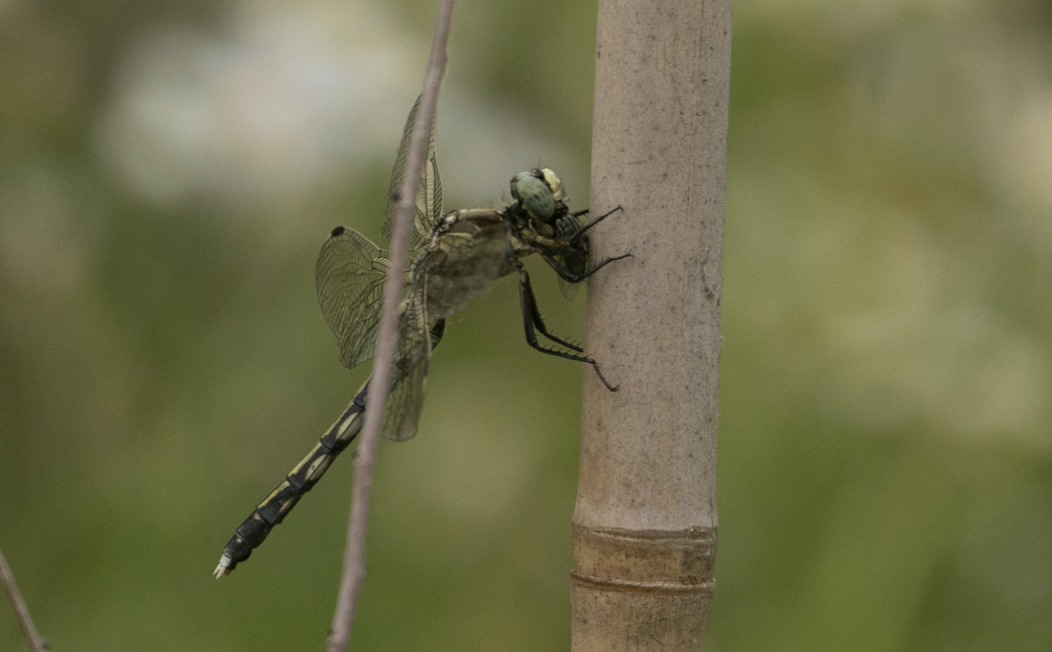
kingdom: Animalia
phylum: Arthropoda
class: Insecta
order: Odonata
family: Libellulidae
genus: Orthetrum
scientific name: Orthetrum albistylum
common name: White-tailed skimmer
